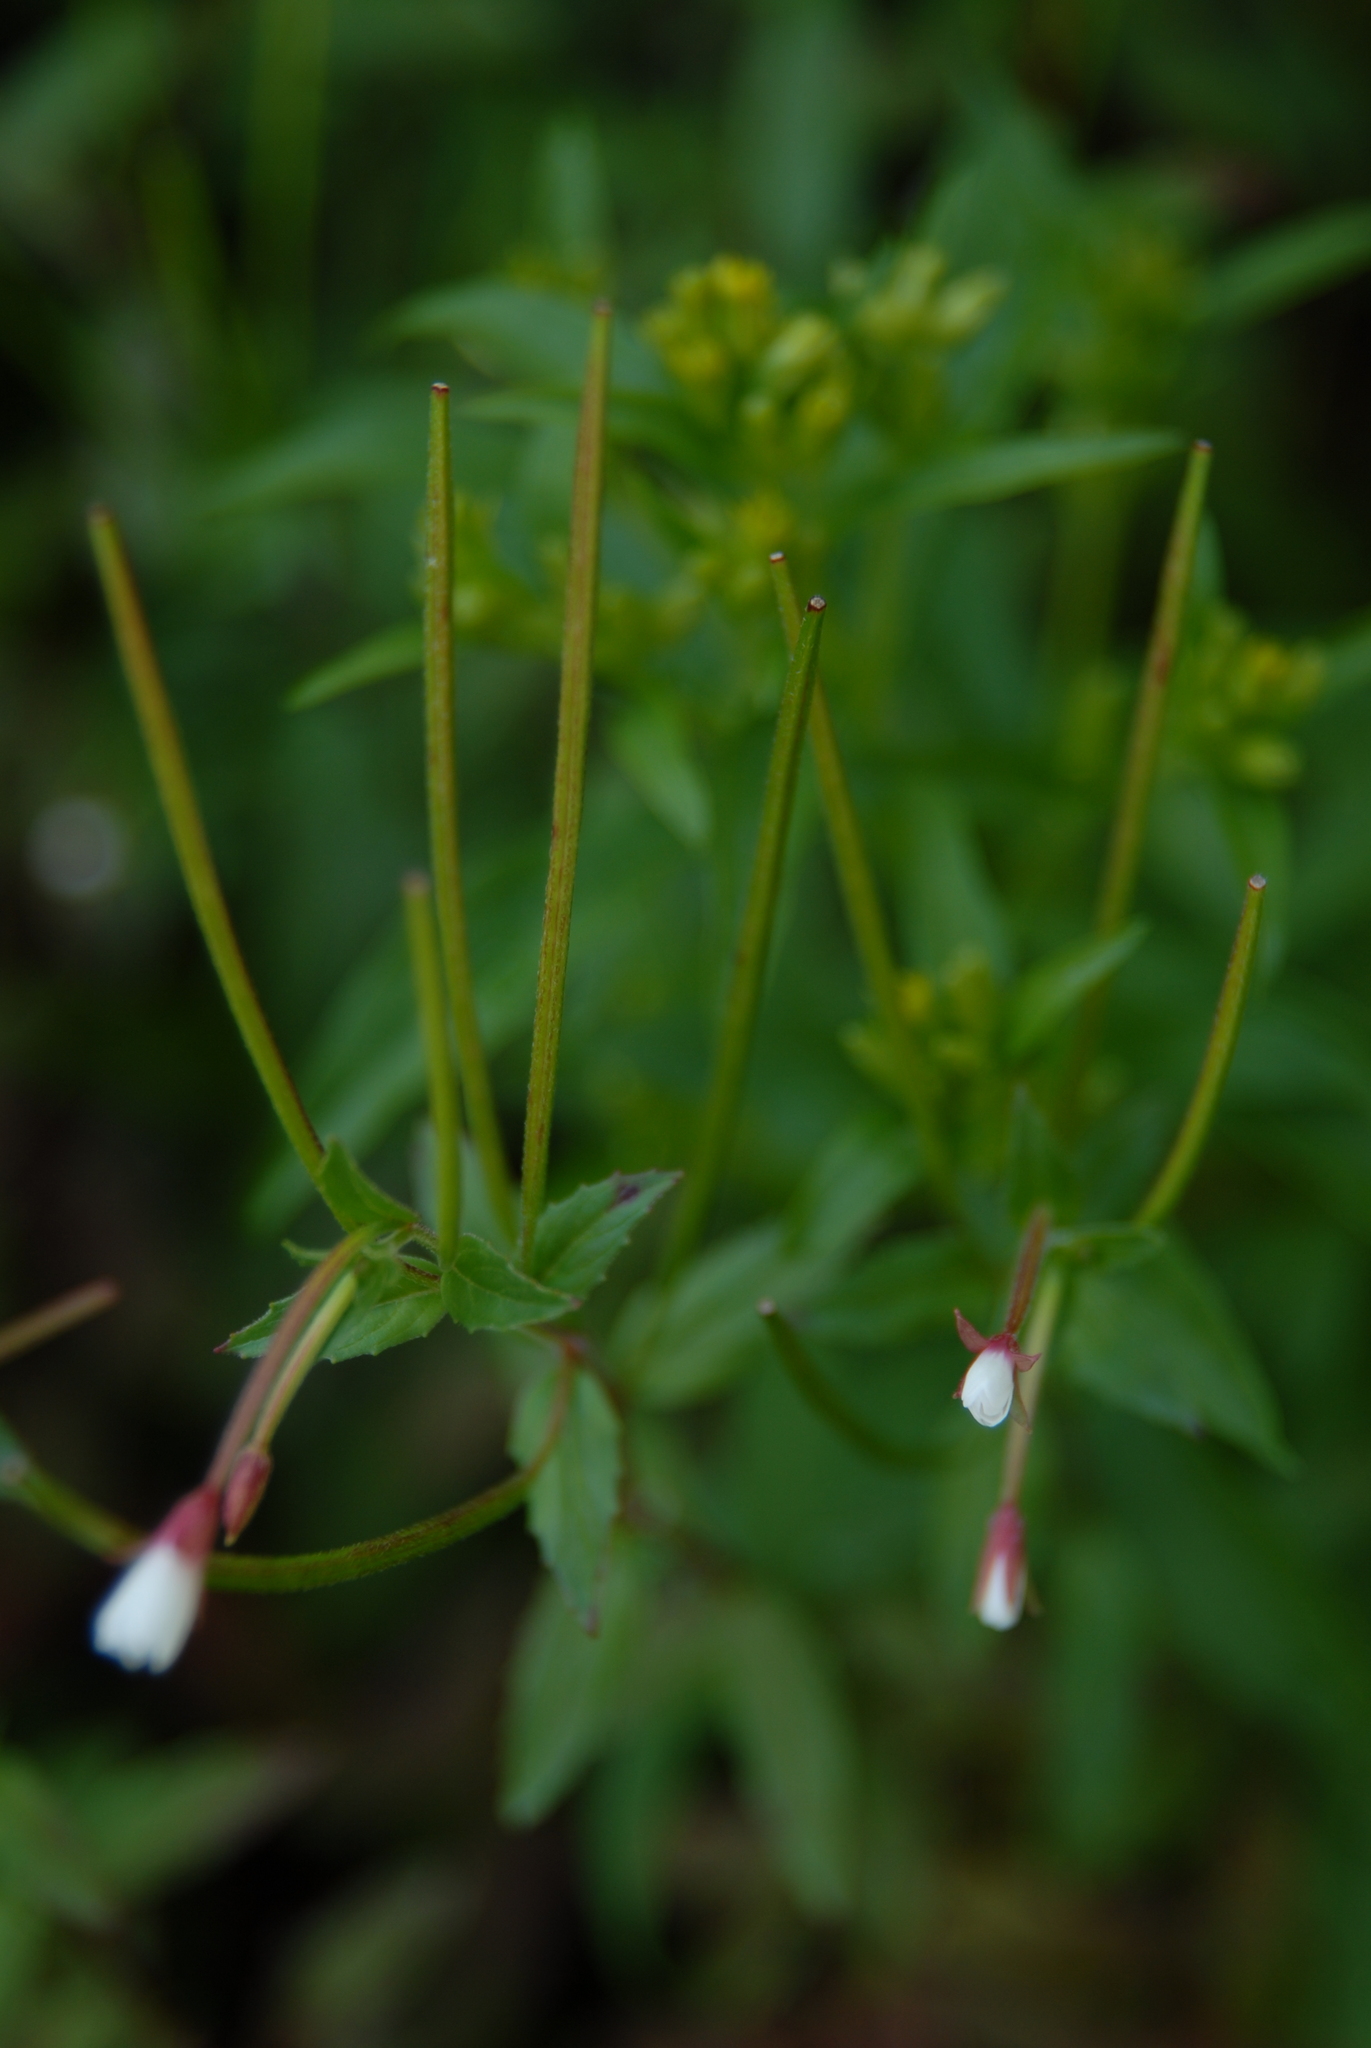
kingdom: Plantae
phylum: Tracheophyta
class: Magnoliopsida
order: Myrtales
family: Onagraceae
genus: Epilobium
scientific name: Epilobium amurense
